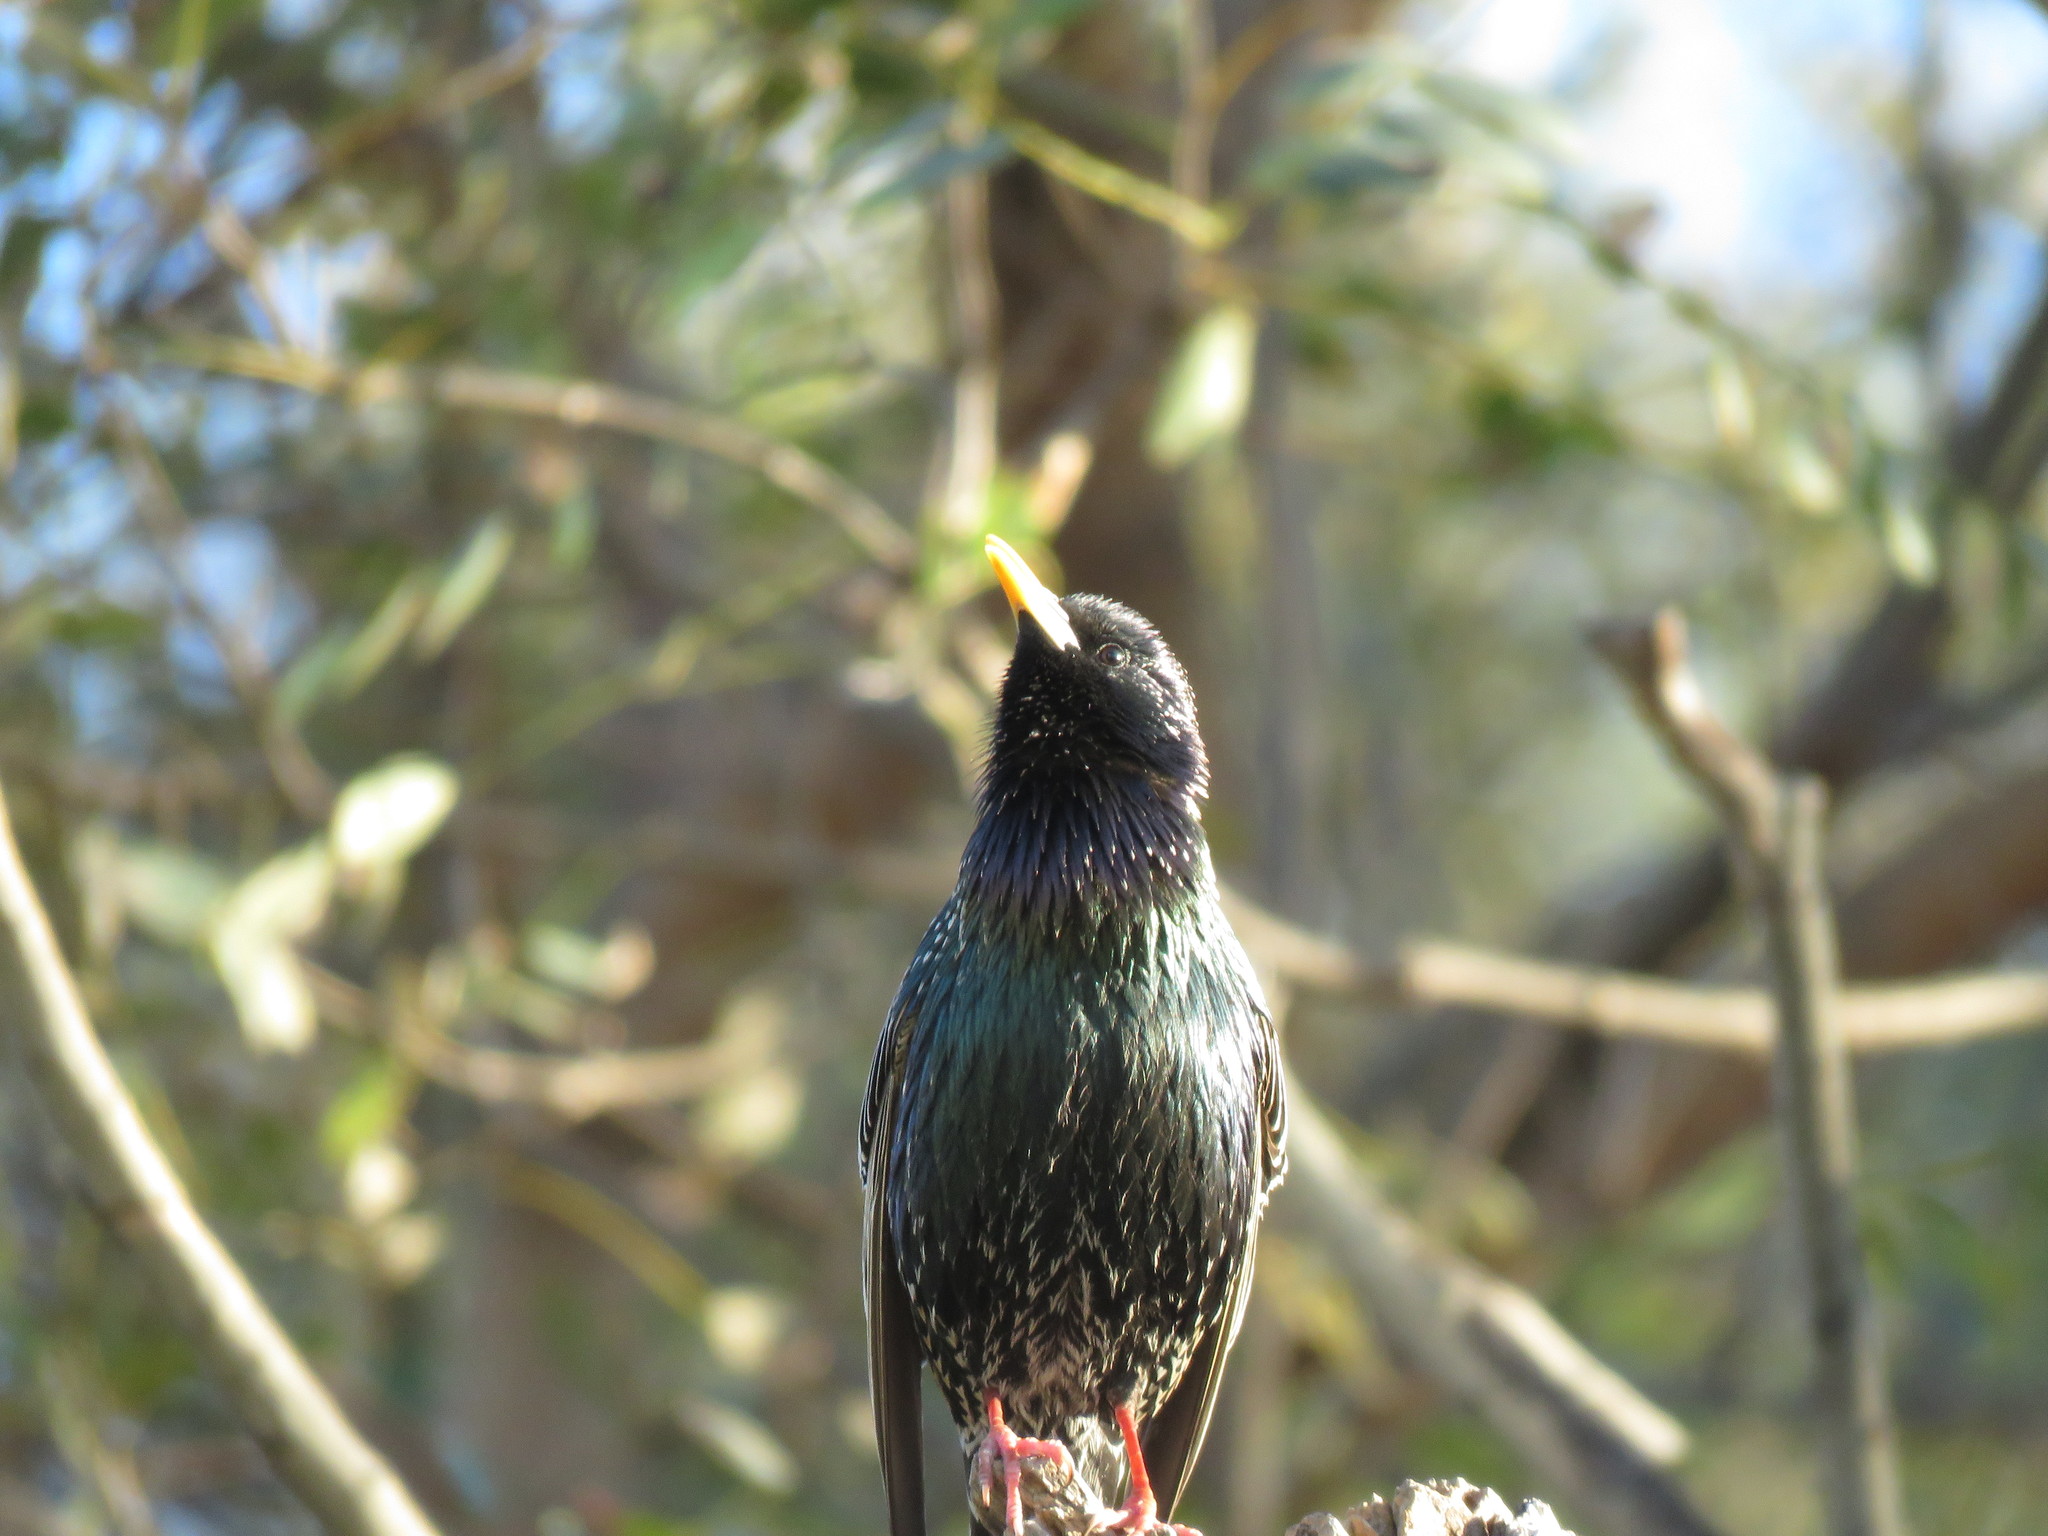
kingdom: Animalia
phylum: Chordata
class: Aves
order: Passeriformes
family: Sturnidae
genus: Sturnus
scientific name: Sturnus vulgaris
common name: Common starling
